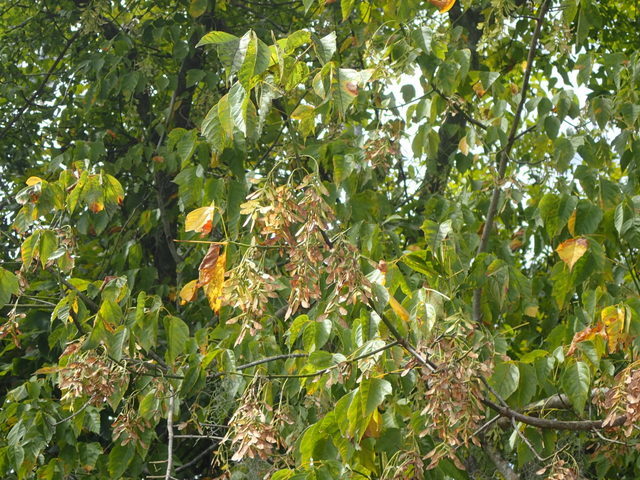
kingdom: Plantae
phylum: Tracheophyta
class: Magnoliopsida
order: Sapindales
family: Sapindaceae
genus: Acer
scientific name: Acer negundo
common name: Ashleaf maple
